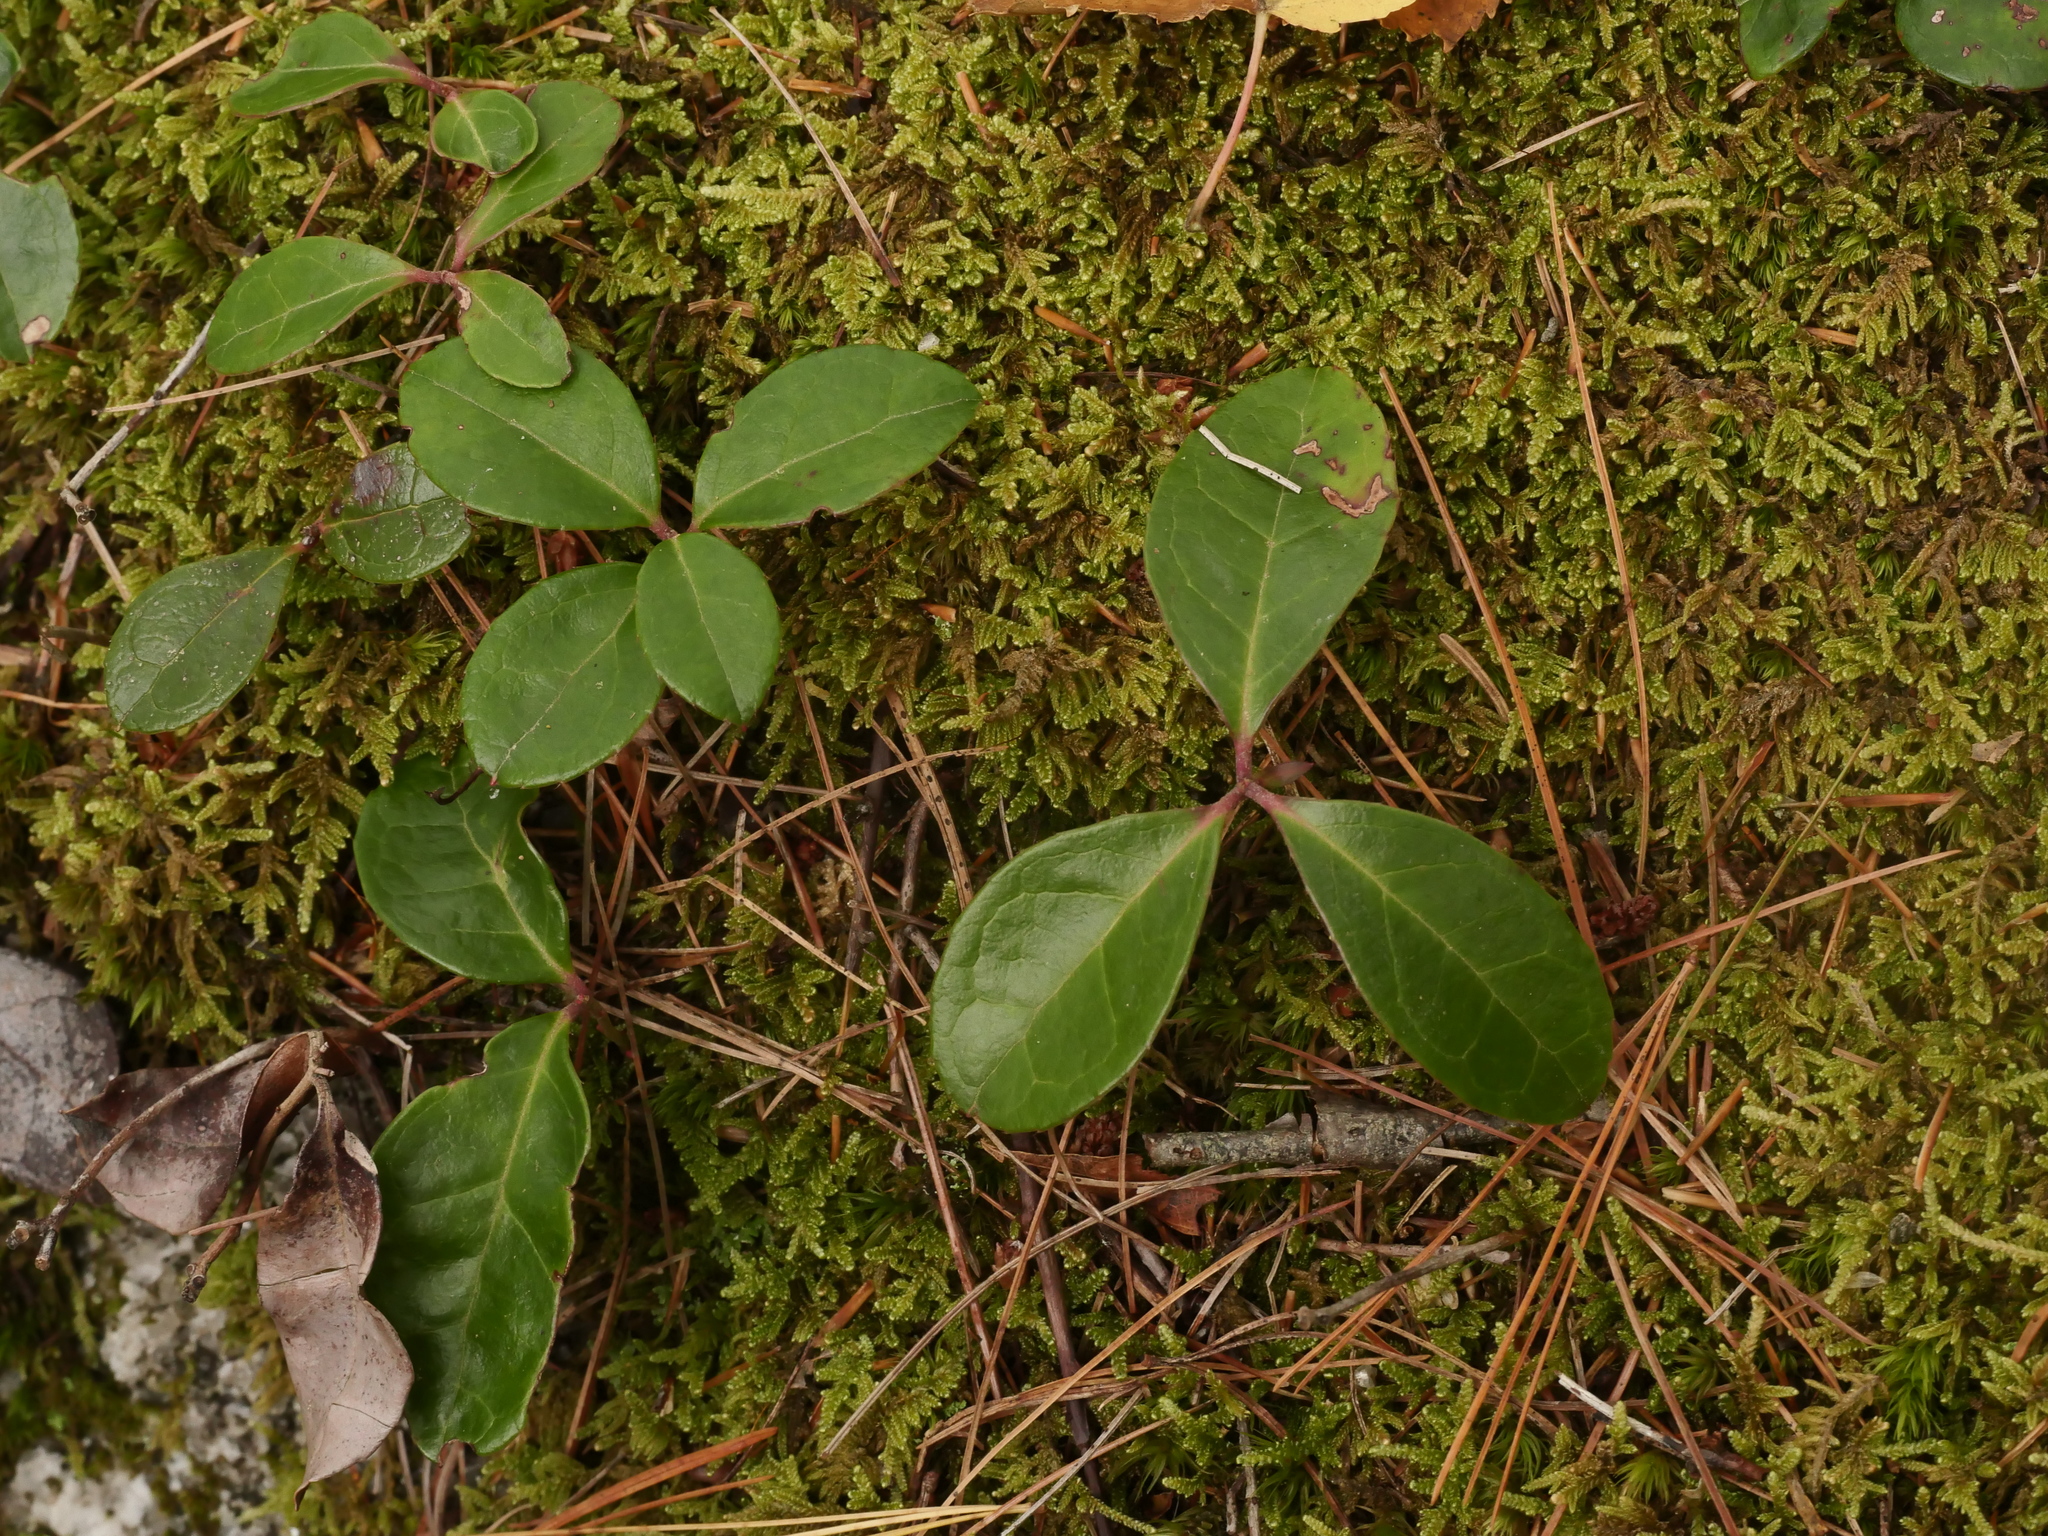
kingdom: Plantae
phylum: Tracheophyta
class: Magnoliopsida
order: Ericales
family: Ericaceae
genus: Gaultheria
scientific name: Gaultheria procumbens
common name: Checkerberry
